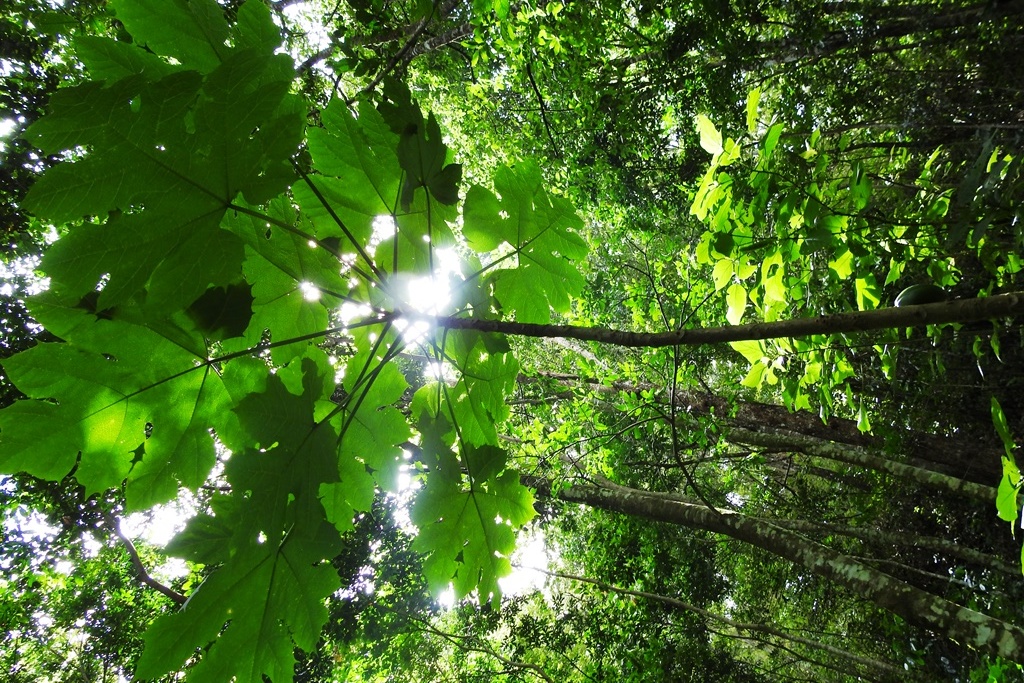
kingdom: Plantae
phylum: Tracheophyta
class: Magnoliopsida
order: Brassicales
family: Caricaceae
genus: Vasconcellea
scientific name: Vasconcellea cauliflora
